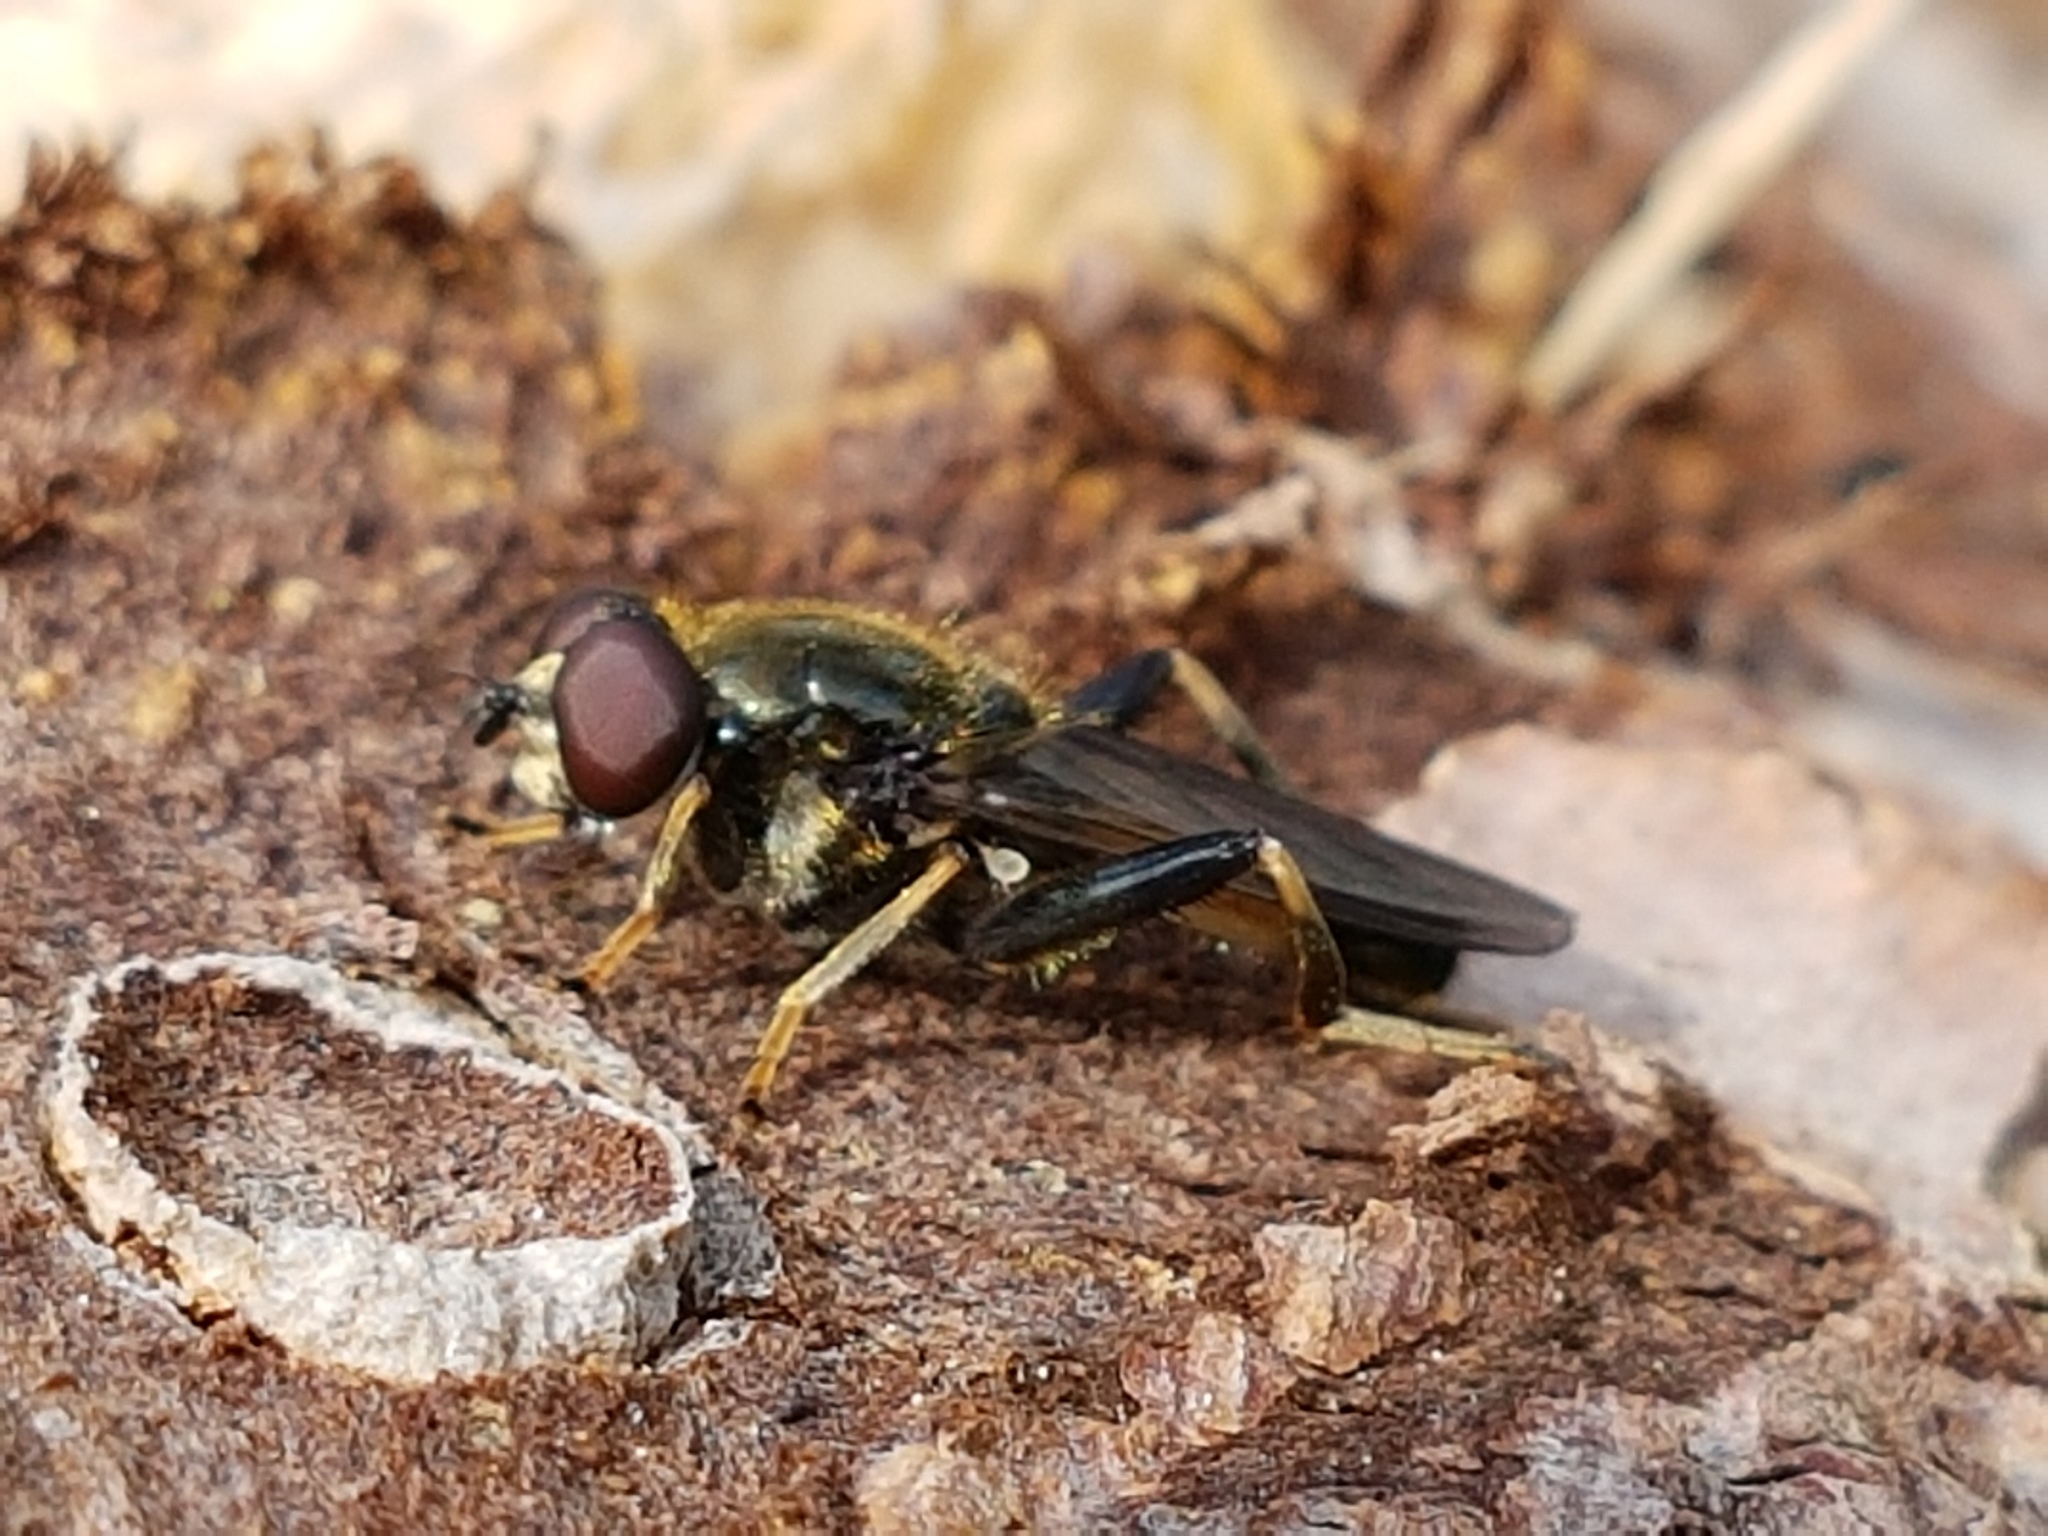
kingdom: Animalia
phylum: Arthropoda
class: Insecta
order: Diptera
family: Syrphidae
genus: Xylota
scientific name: Xylota segnis
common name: Brown-toed forest fly
